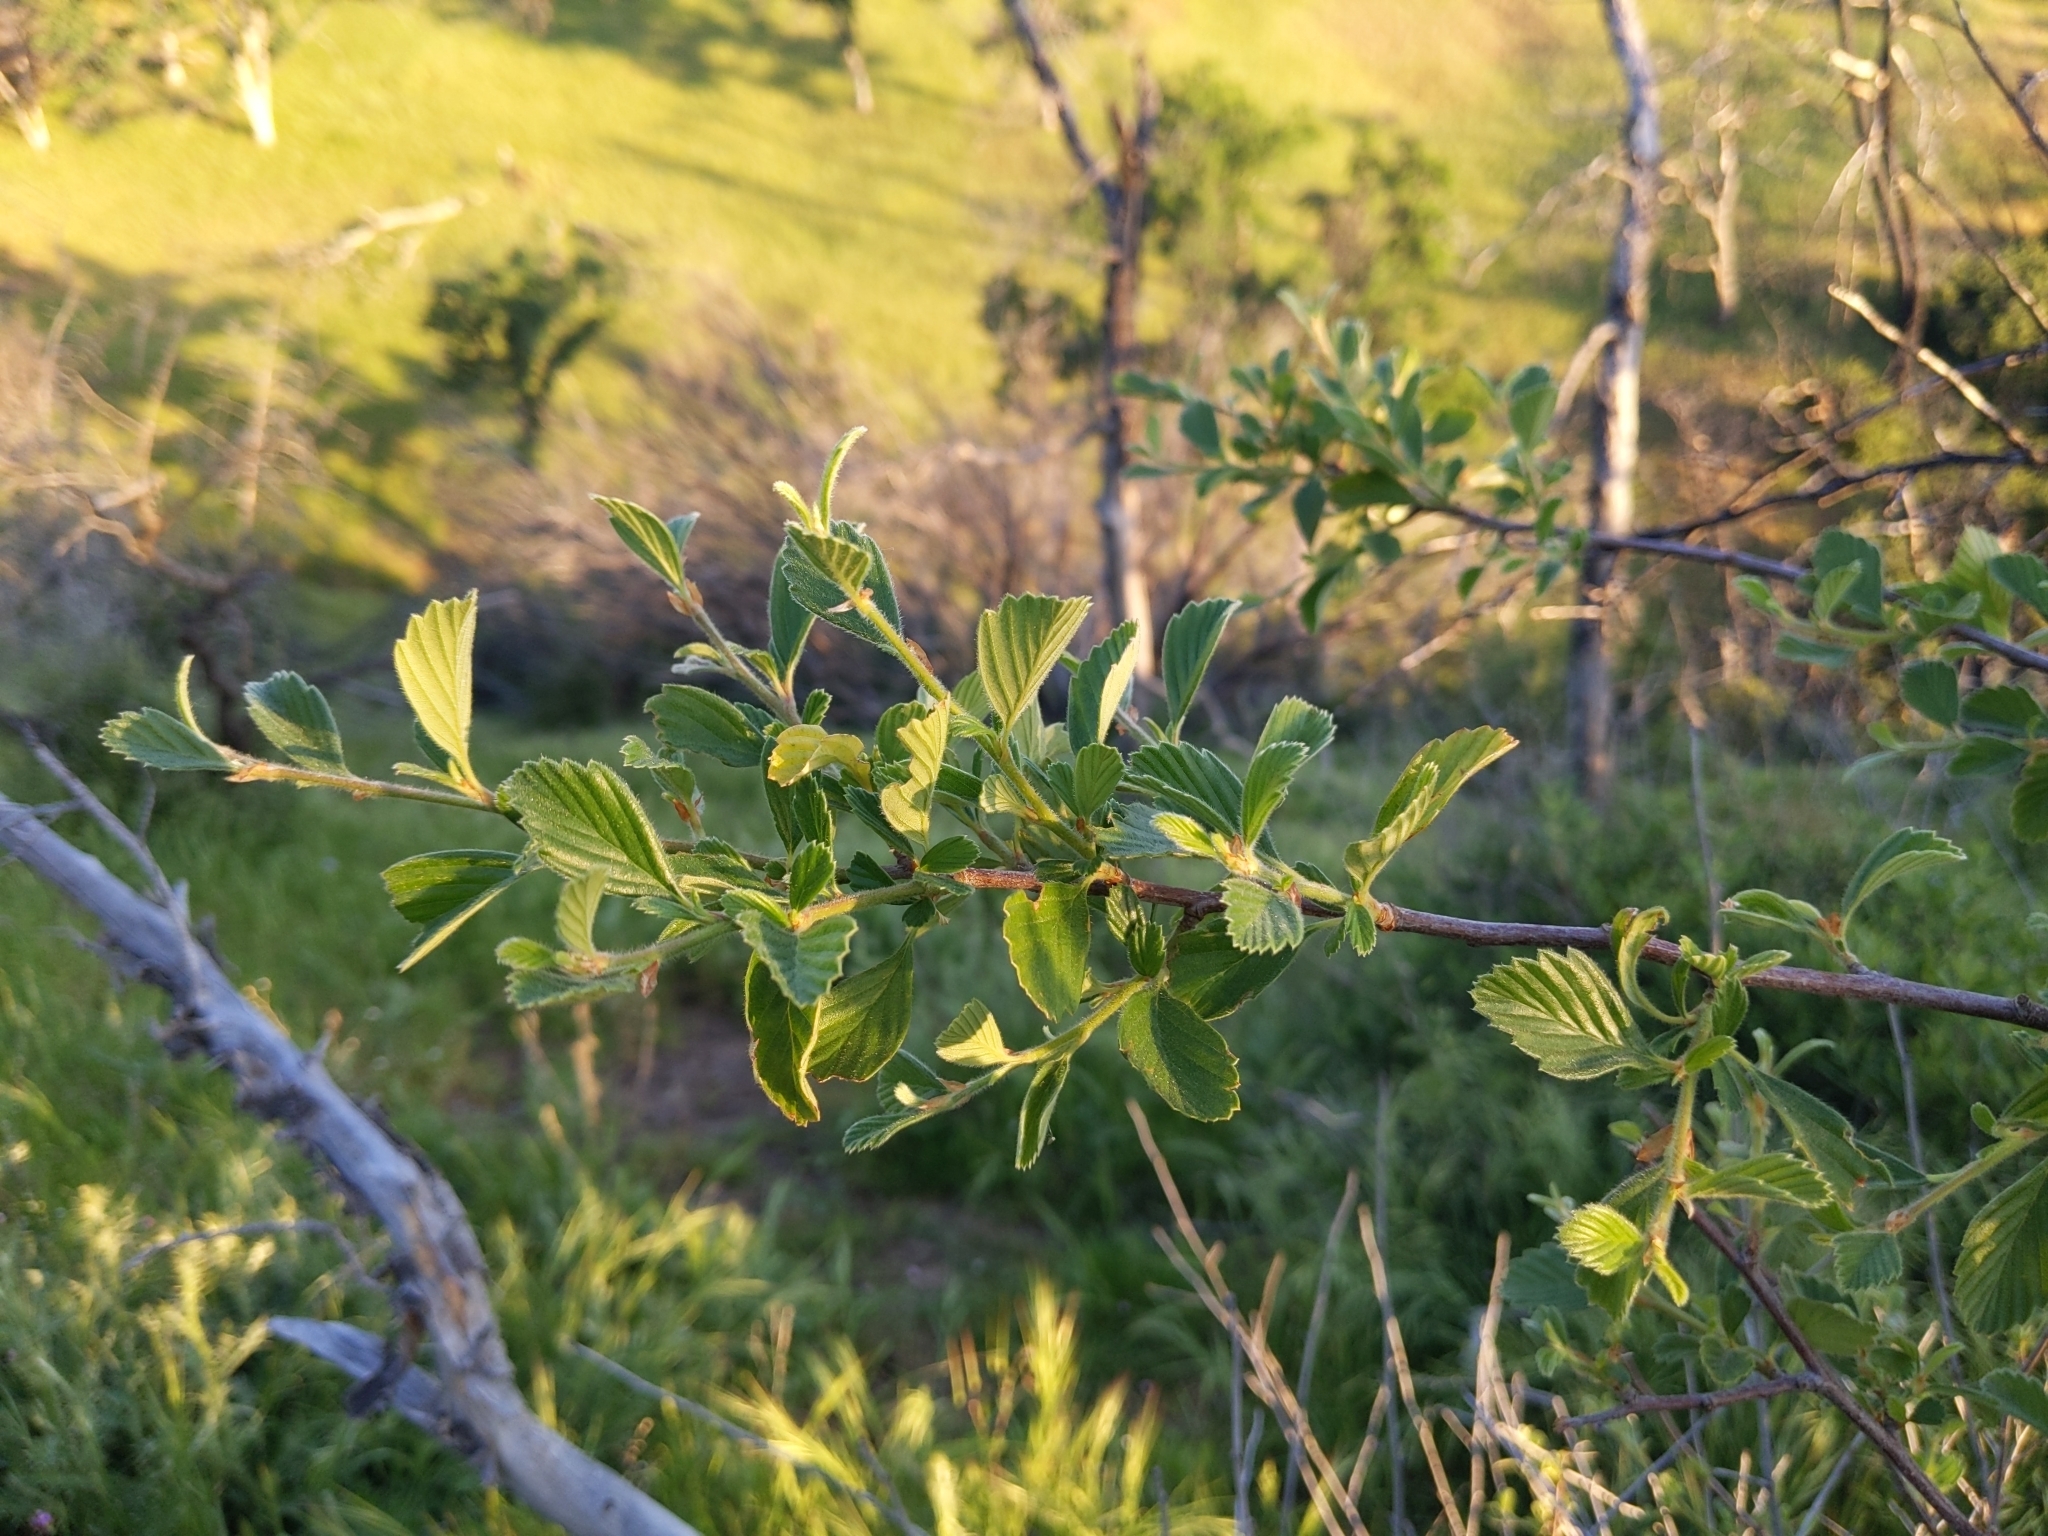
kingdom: Plantae
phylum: Tracheophyta
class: Magnoliopsida
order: Rosales
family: Rosaceae
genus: Cercocarpus
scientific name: Cercocarpus betuloides
